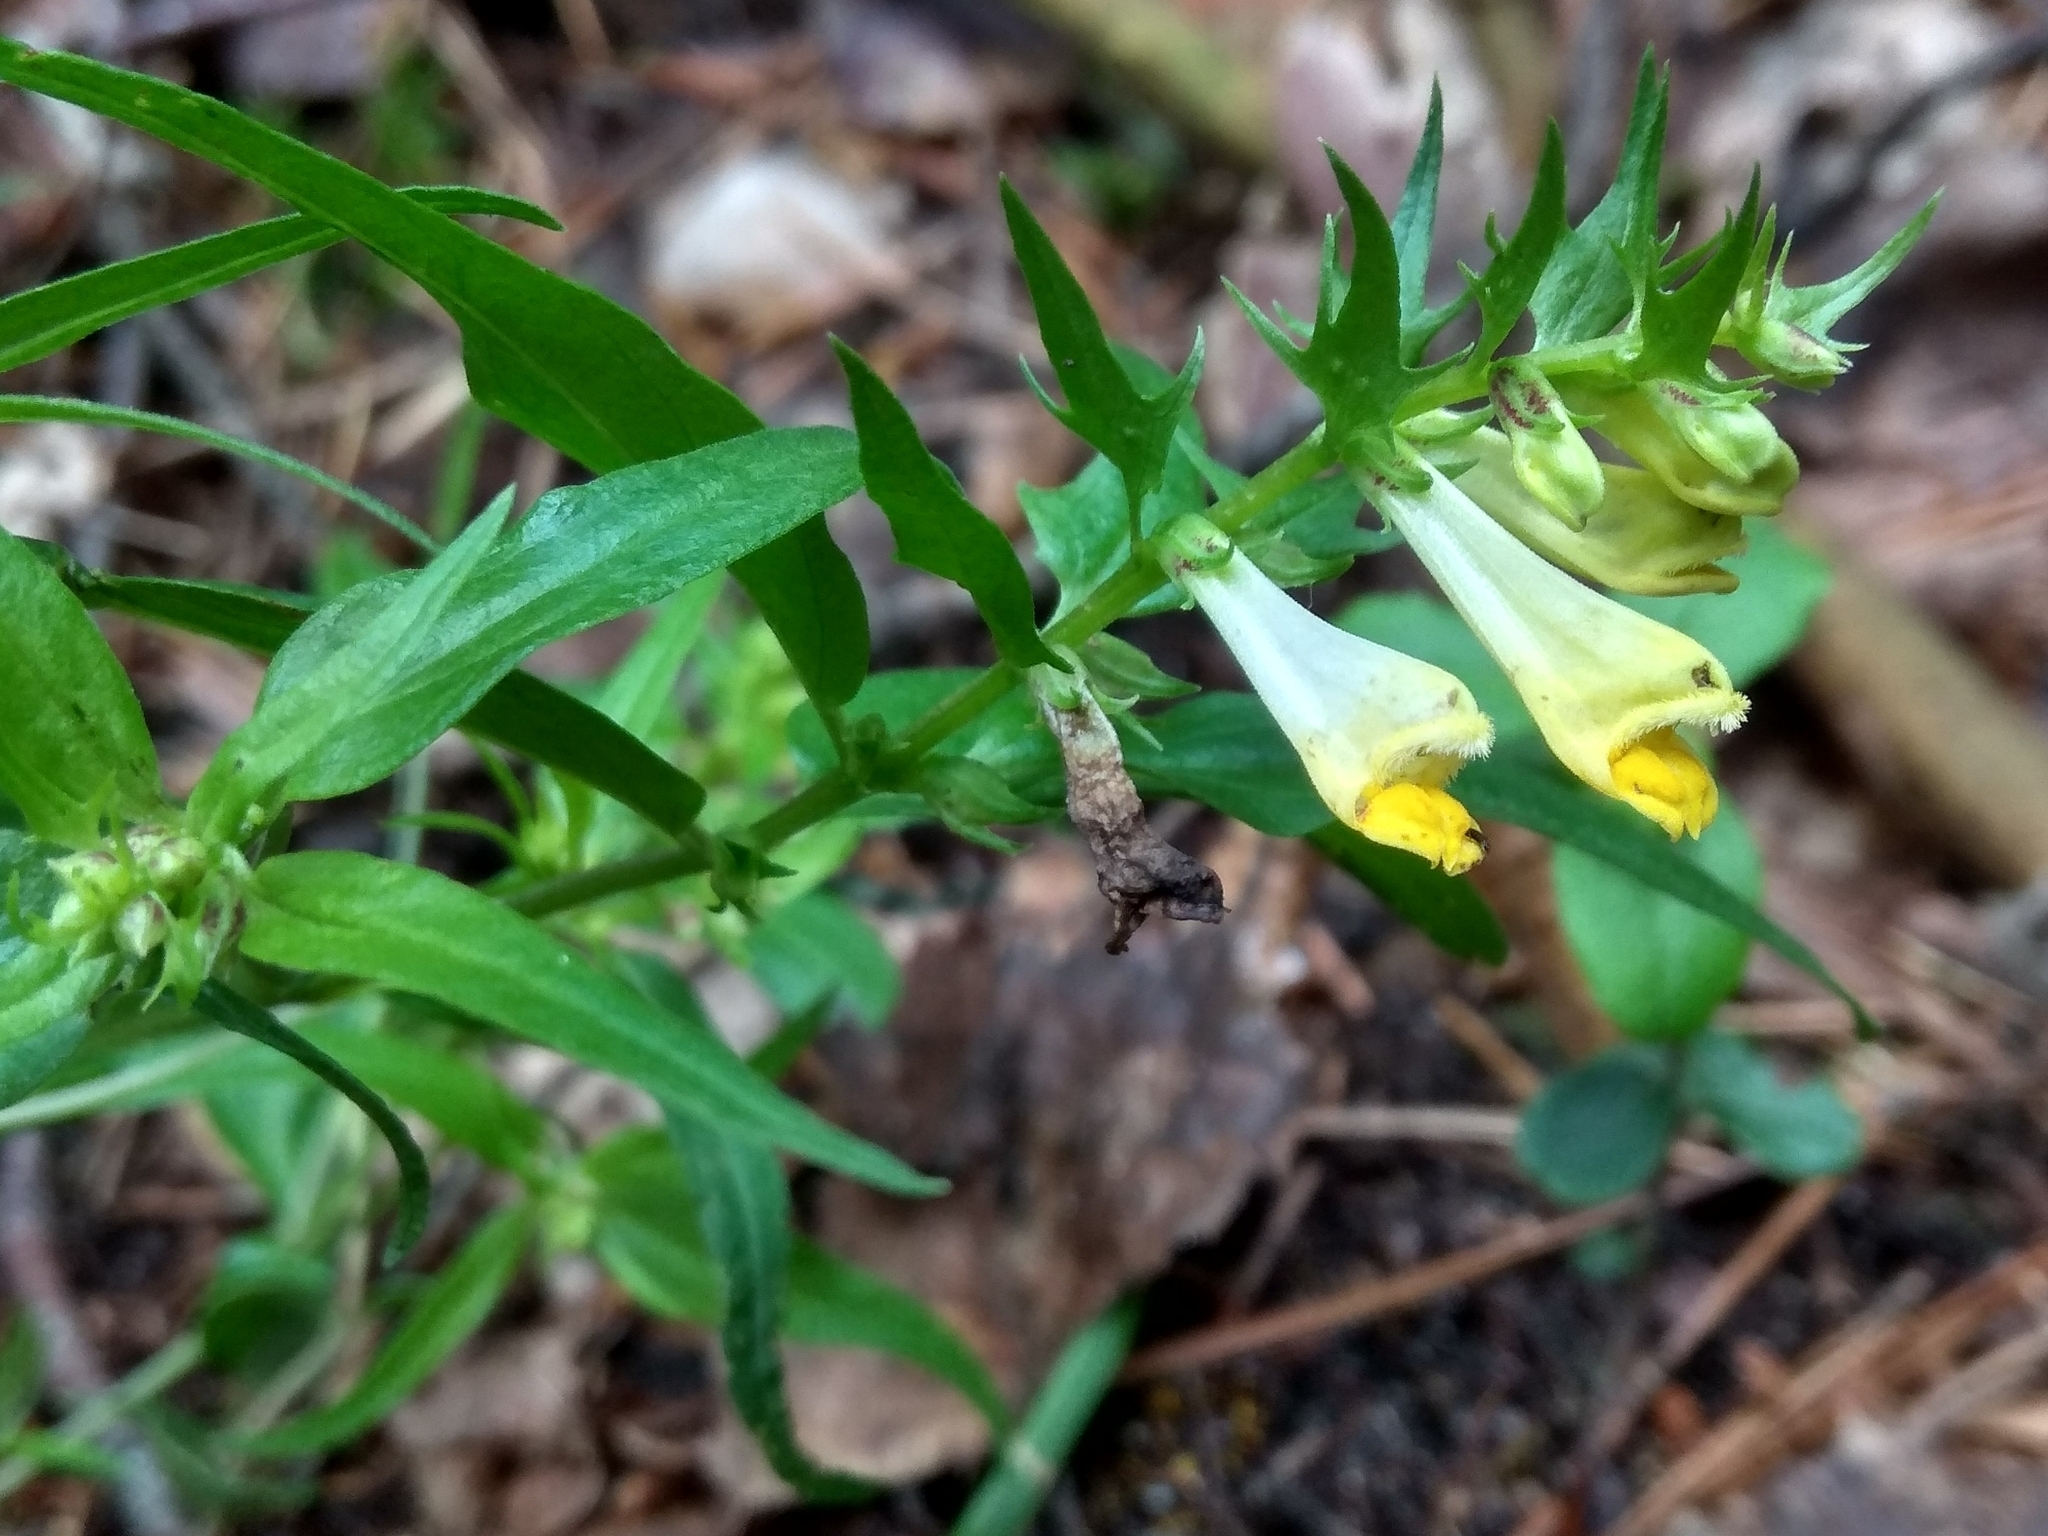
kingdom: Plantae
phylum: Tracheophyta
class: Magnoliopsida
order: Lamiales
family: Orobanchaceae
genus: Melampyrum
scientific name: Melampyrum pratense
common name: Common cow-wheat
